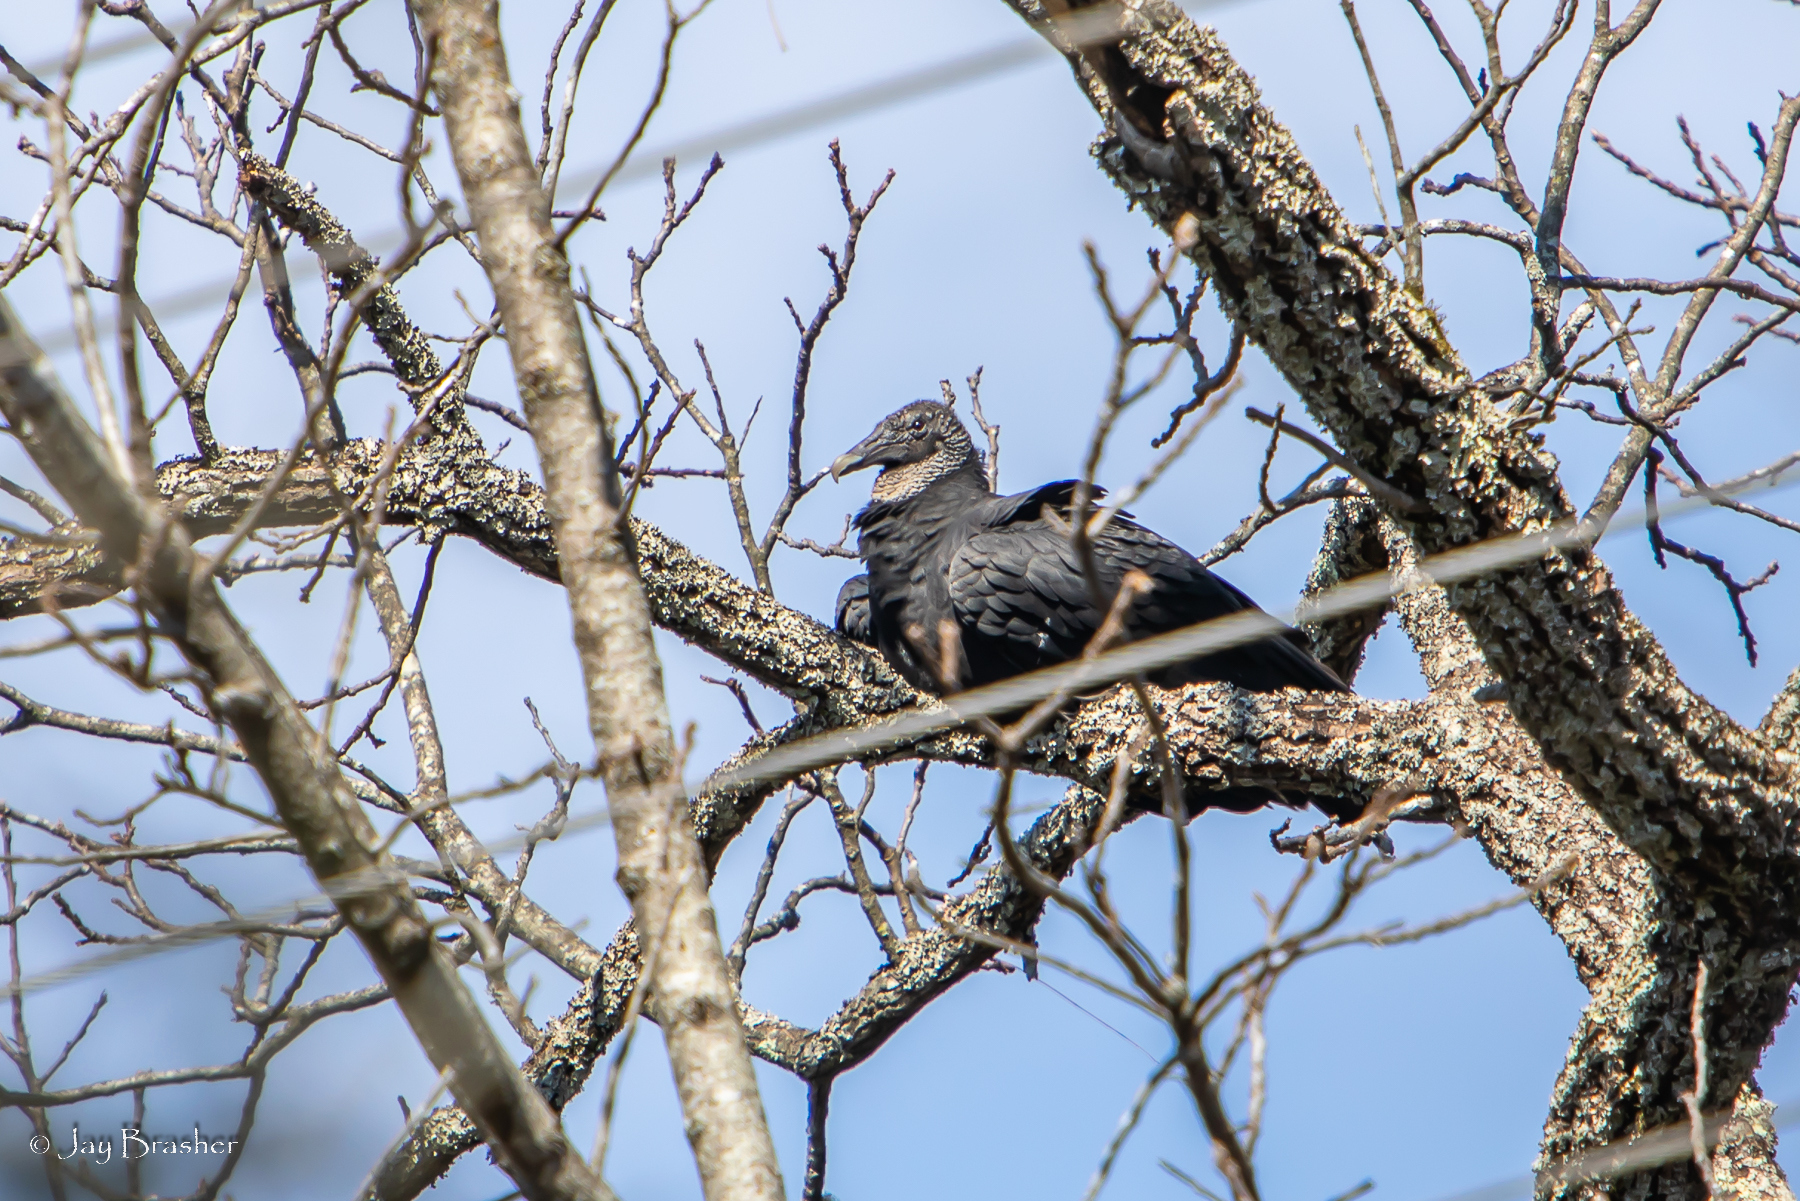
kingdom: Animalia
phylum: Chordata
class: Aves
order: Accipitriformes
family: Cathartidae
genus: Coragyps
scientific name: Coragyps atratus
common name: Black vulture
